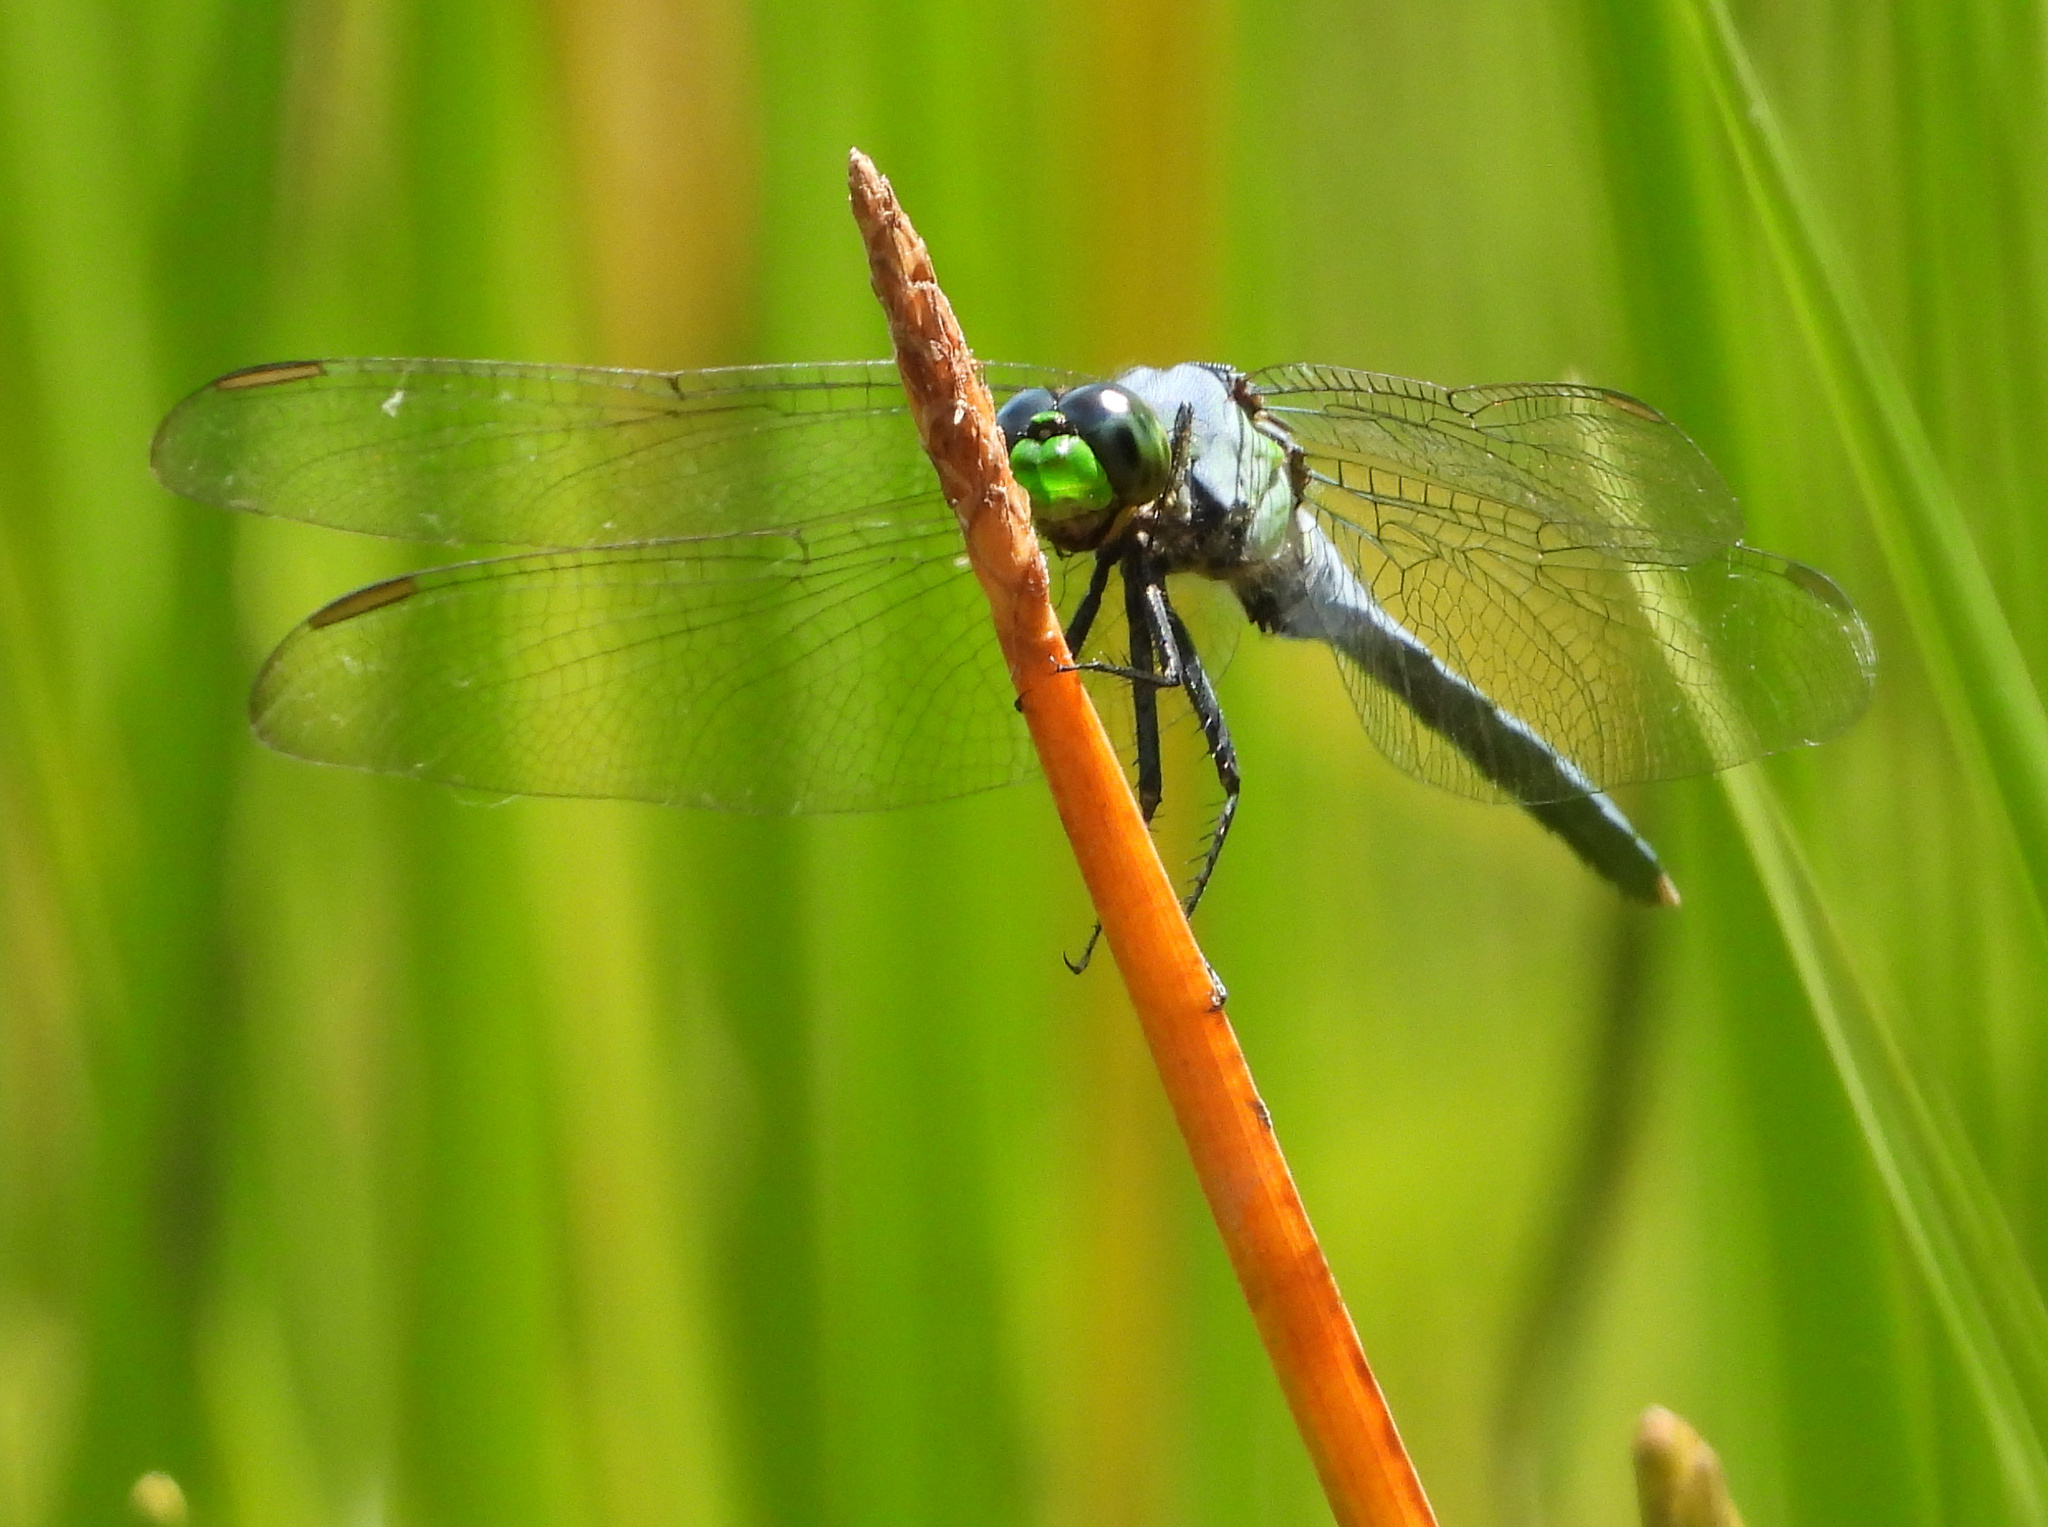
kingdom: Animalia
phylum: Arthropoda
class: Insecta
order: Odonata
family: Libellulidae
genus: Erythemis
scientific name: Erythemis simplicicollis
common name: Eastern pondhawk
